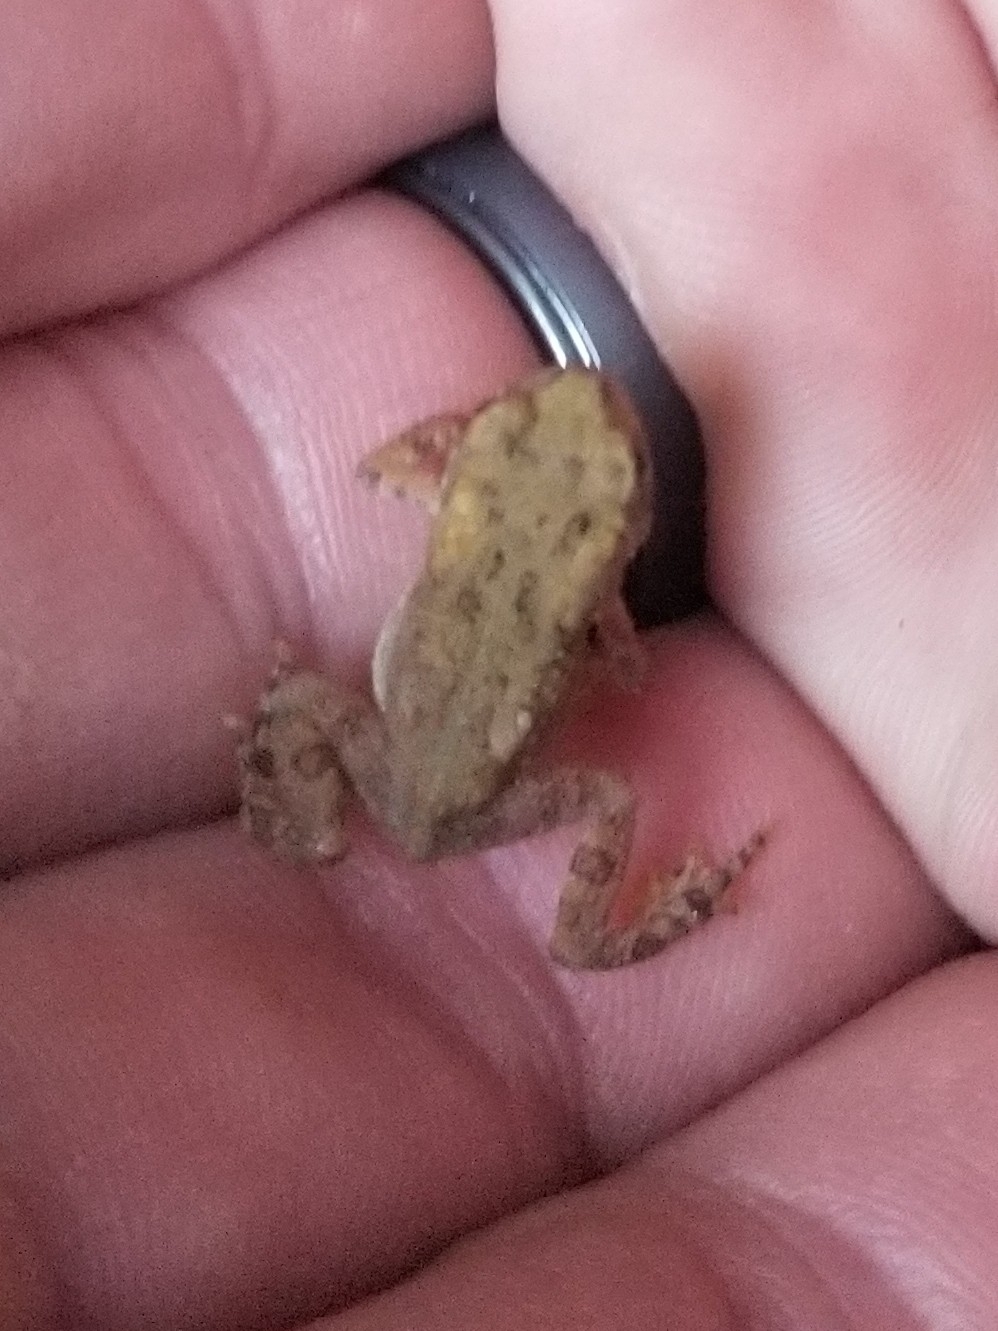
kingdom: Animalia
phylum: Chordata
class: Amphibia
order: Anura
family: Bufonidae
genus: Anaxyrus
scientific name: Anaxyrus americanus
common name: American toad
